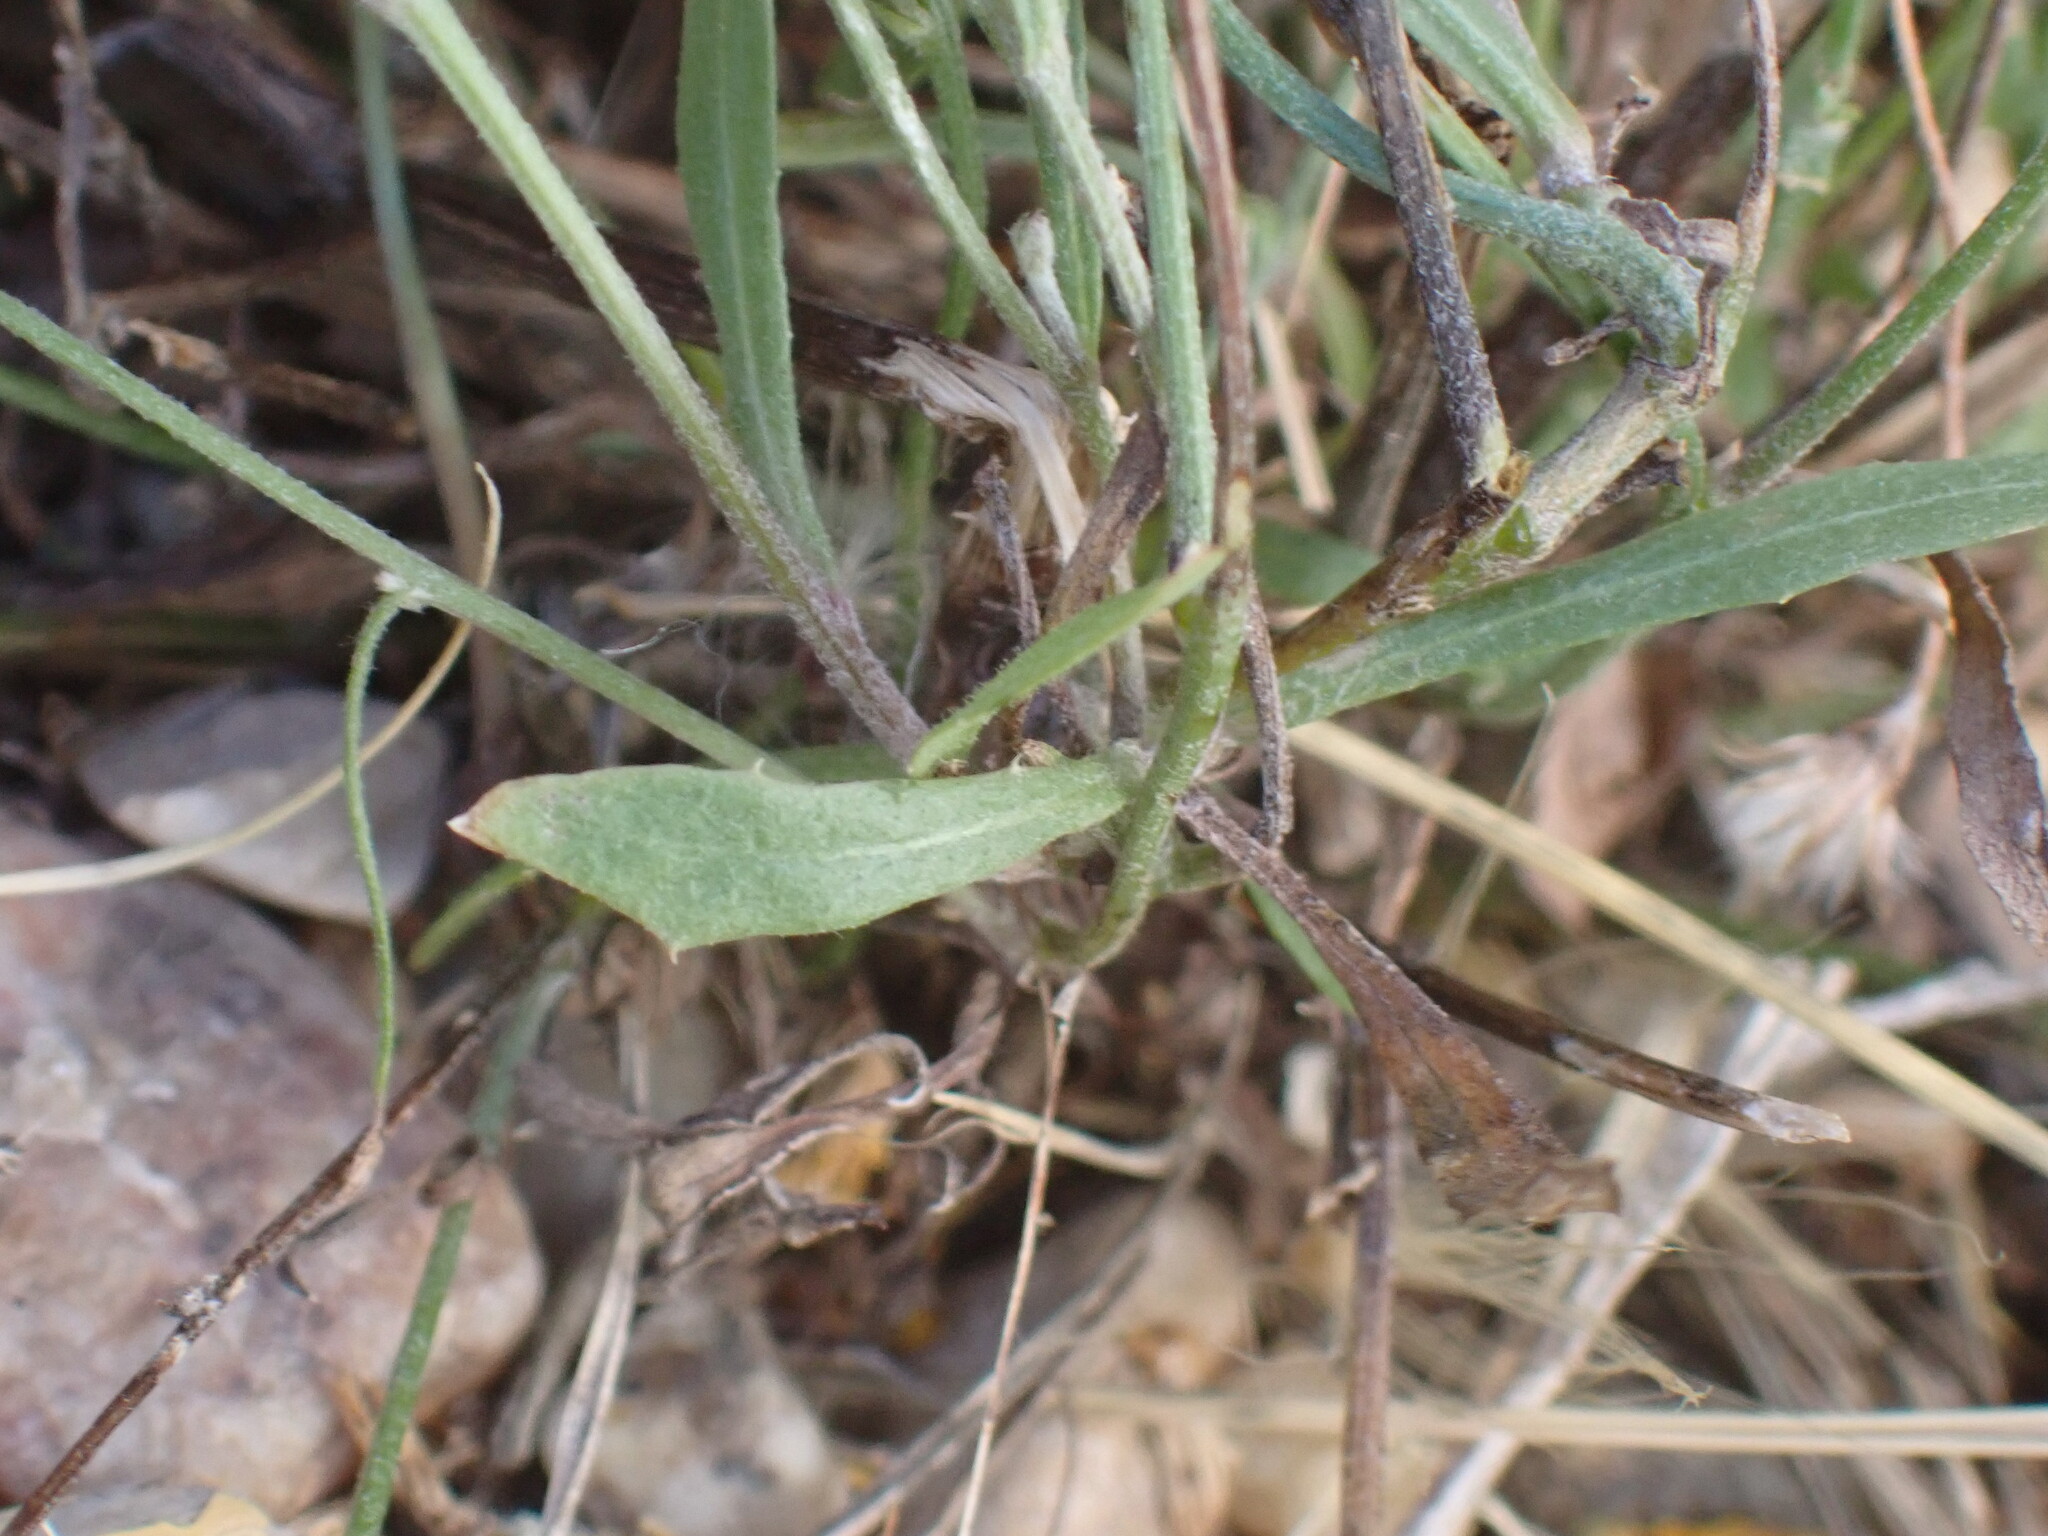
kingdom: Plantae
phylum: Tracheophyta
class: Magnoliopsida
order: Asterales
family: Asteraceae
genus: Crepis
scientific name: Crepis tectorum
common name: Narrow-leaved hawk's-beard
